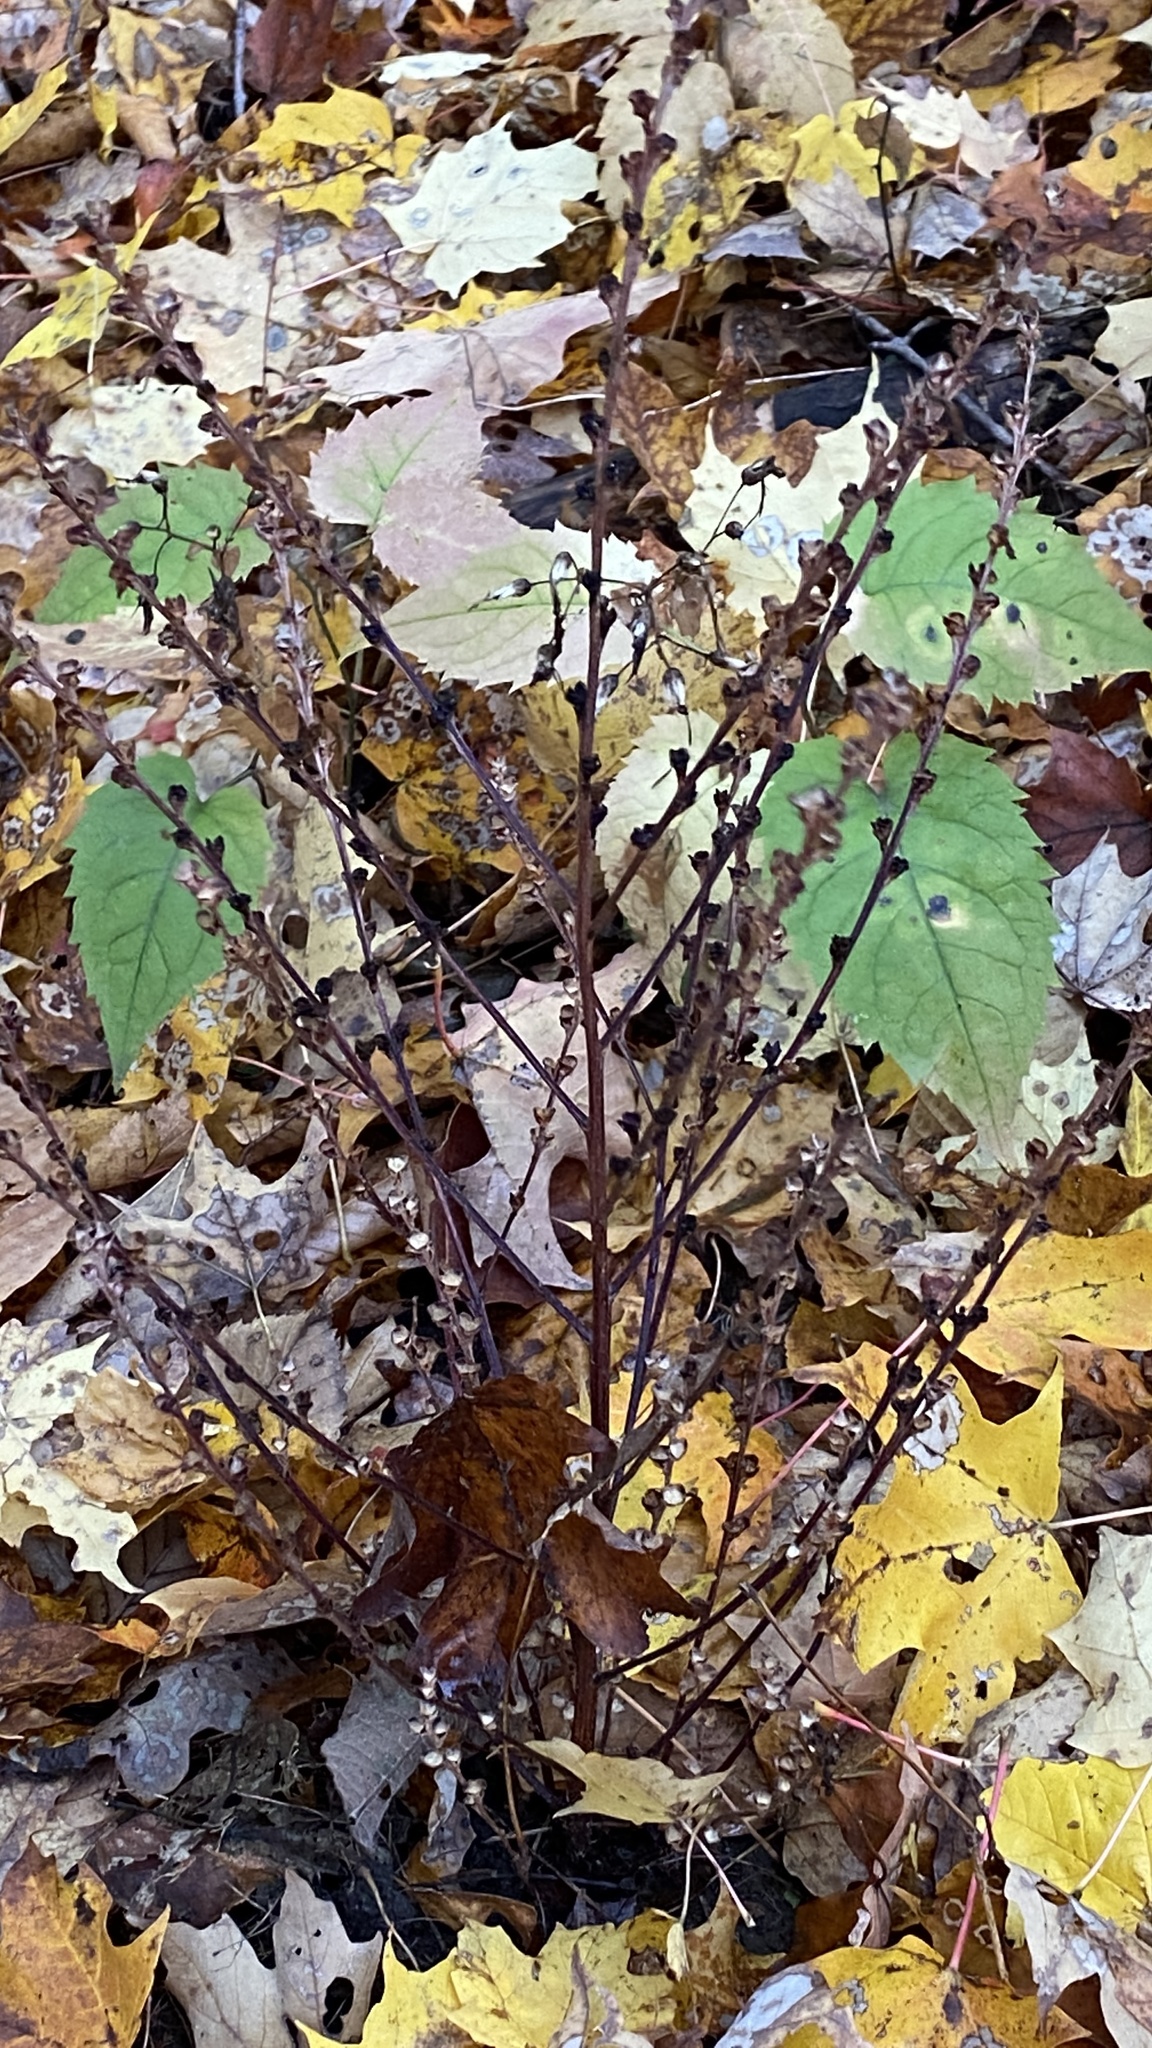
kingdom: Plantae
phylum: Tracheophyta
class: Magnoliopsida
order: Lamiales
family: Orobanchaceae
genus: Epifagus
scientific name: Epifagus virginiana
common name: Beechdrops
